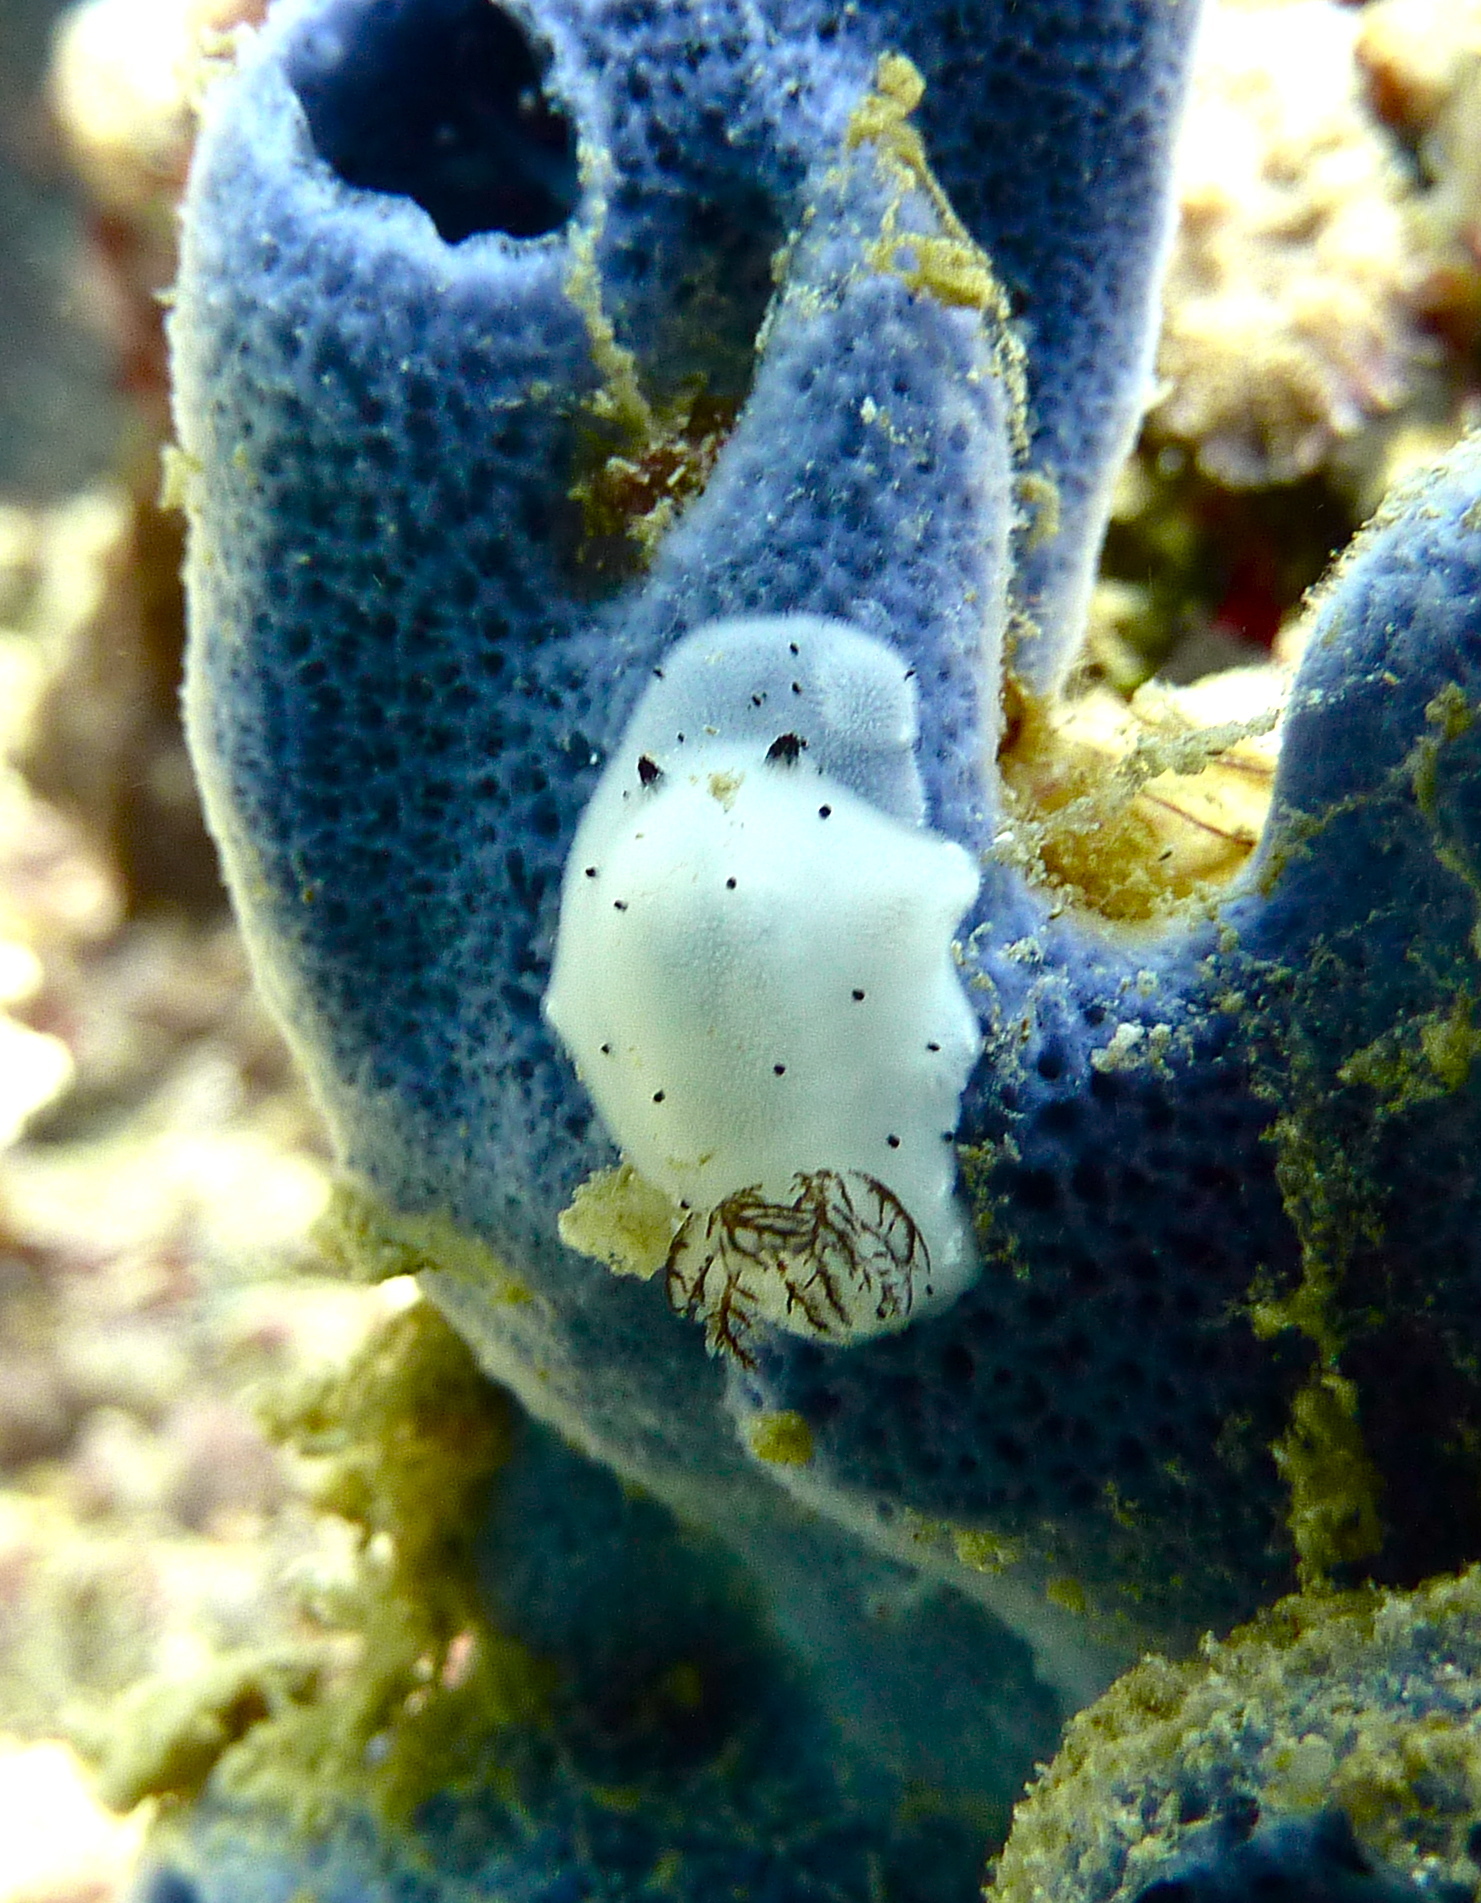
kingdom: Animalia
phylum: Mollusca
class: Gastropoda
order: Nudibranchia
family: Discodorididae
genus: Jorunna
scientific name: Jorunna funebris
